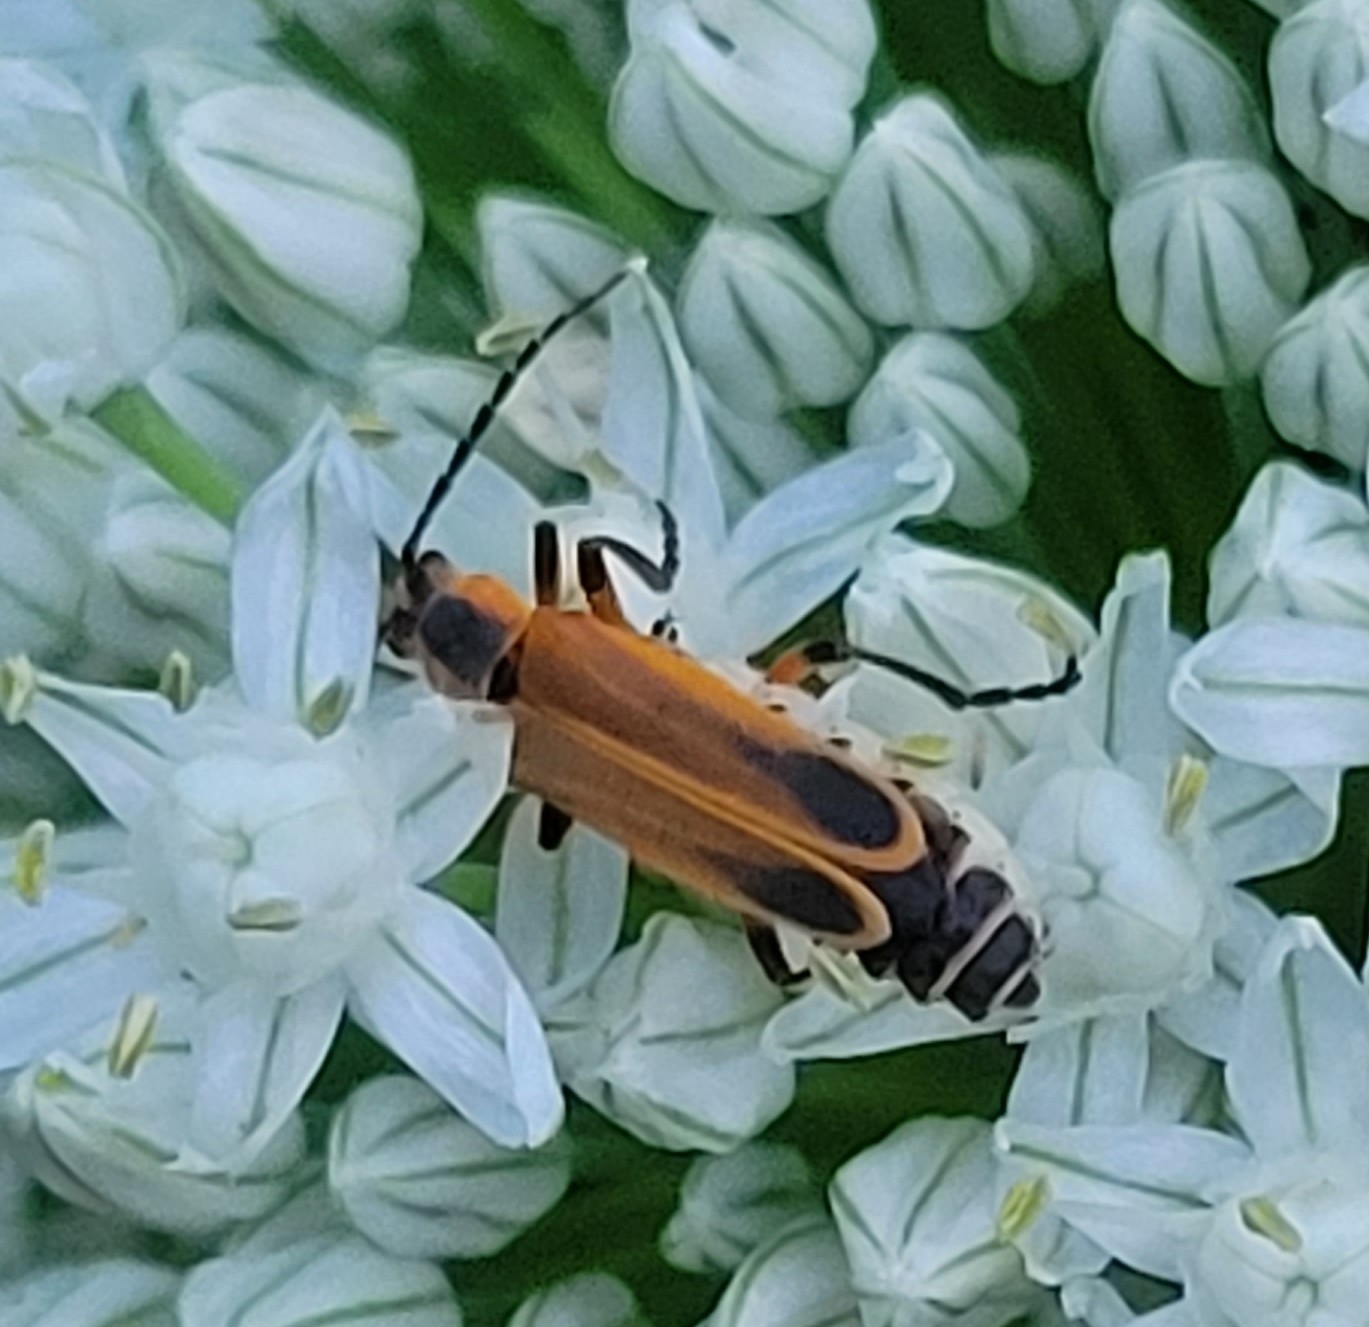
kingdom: Animalia
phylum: Arthropoda
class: Insecta
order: Coleoptera
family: Cantharidae
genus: Chauliognathus
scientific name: Chauliognathus marginatus
